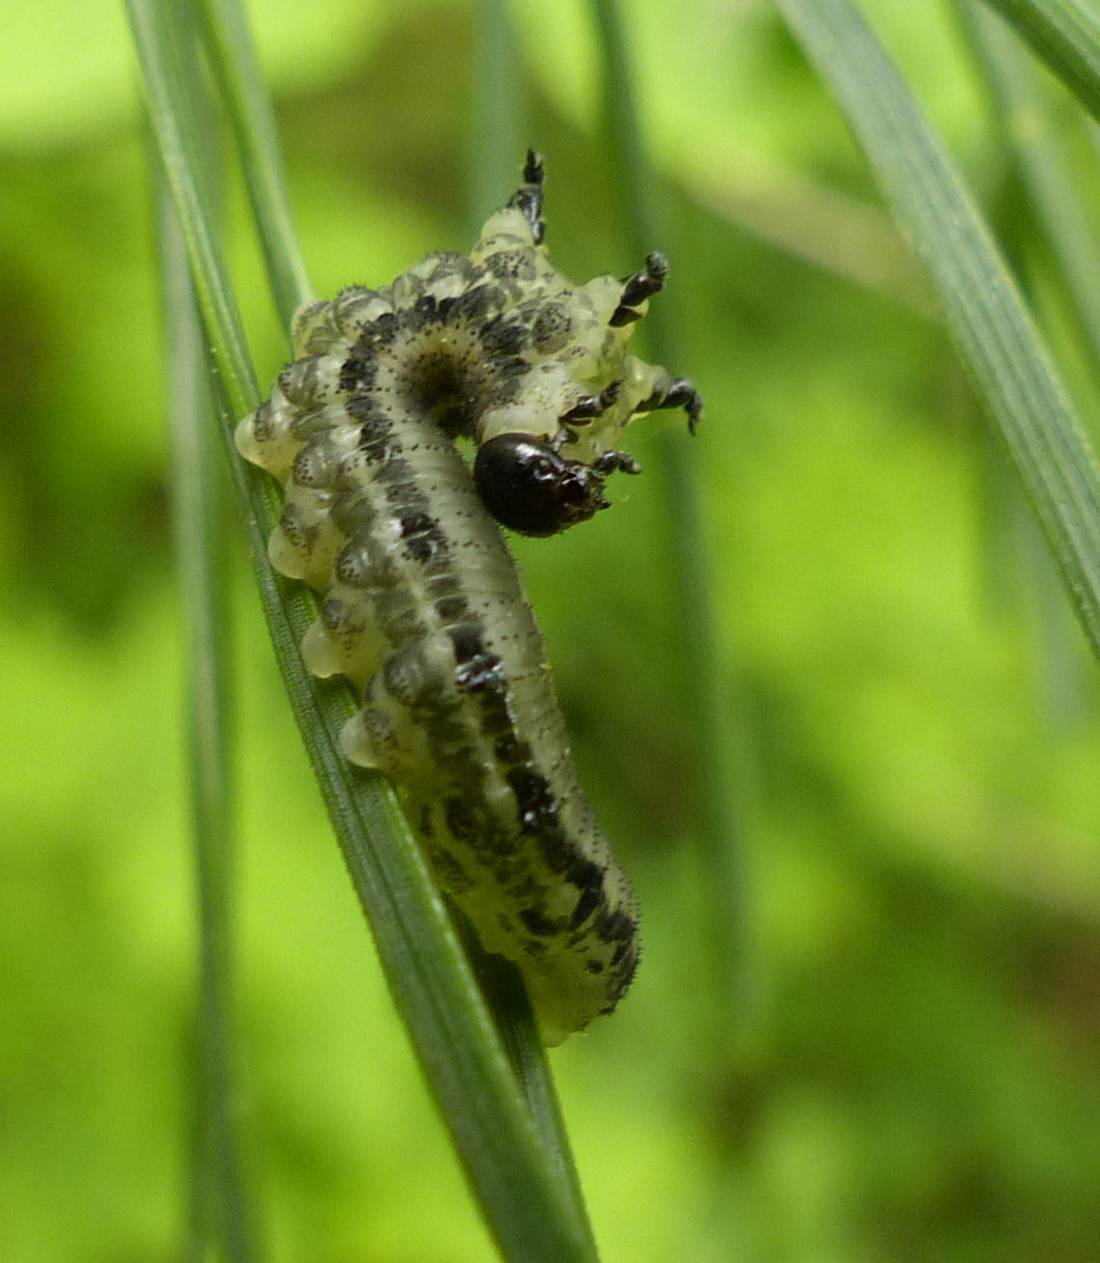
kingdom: Animalia
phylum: Arthropoda
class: Insecta
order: Hymenoptera
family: Diprionidae
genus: Neodiprion
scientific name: Neodiprion sertifer
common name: European pine sawfly
